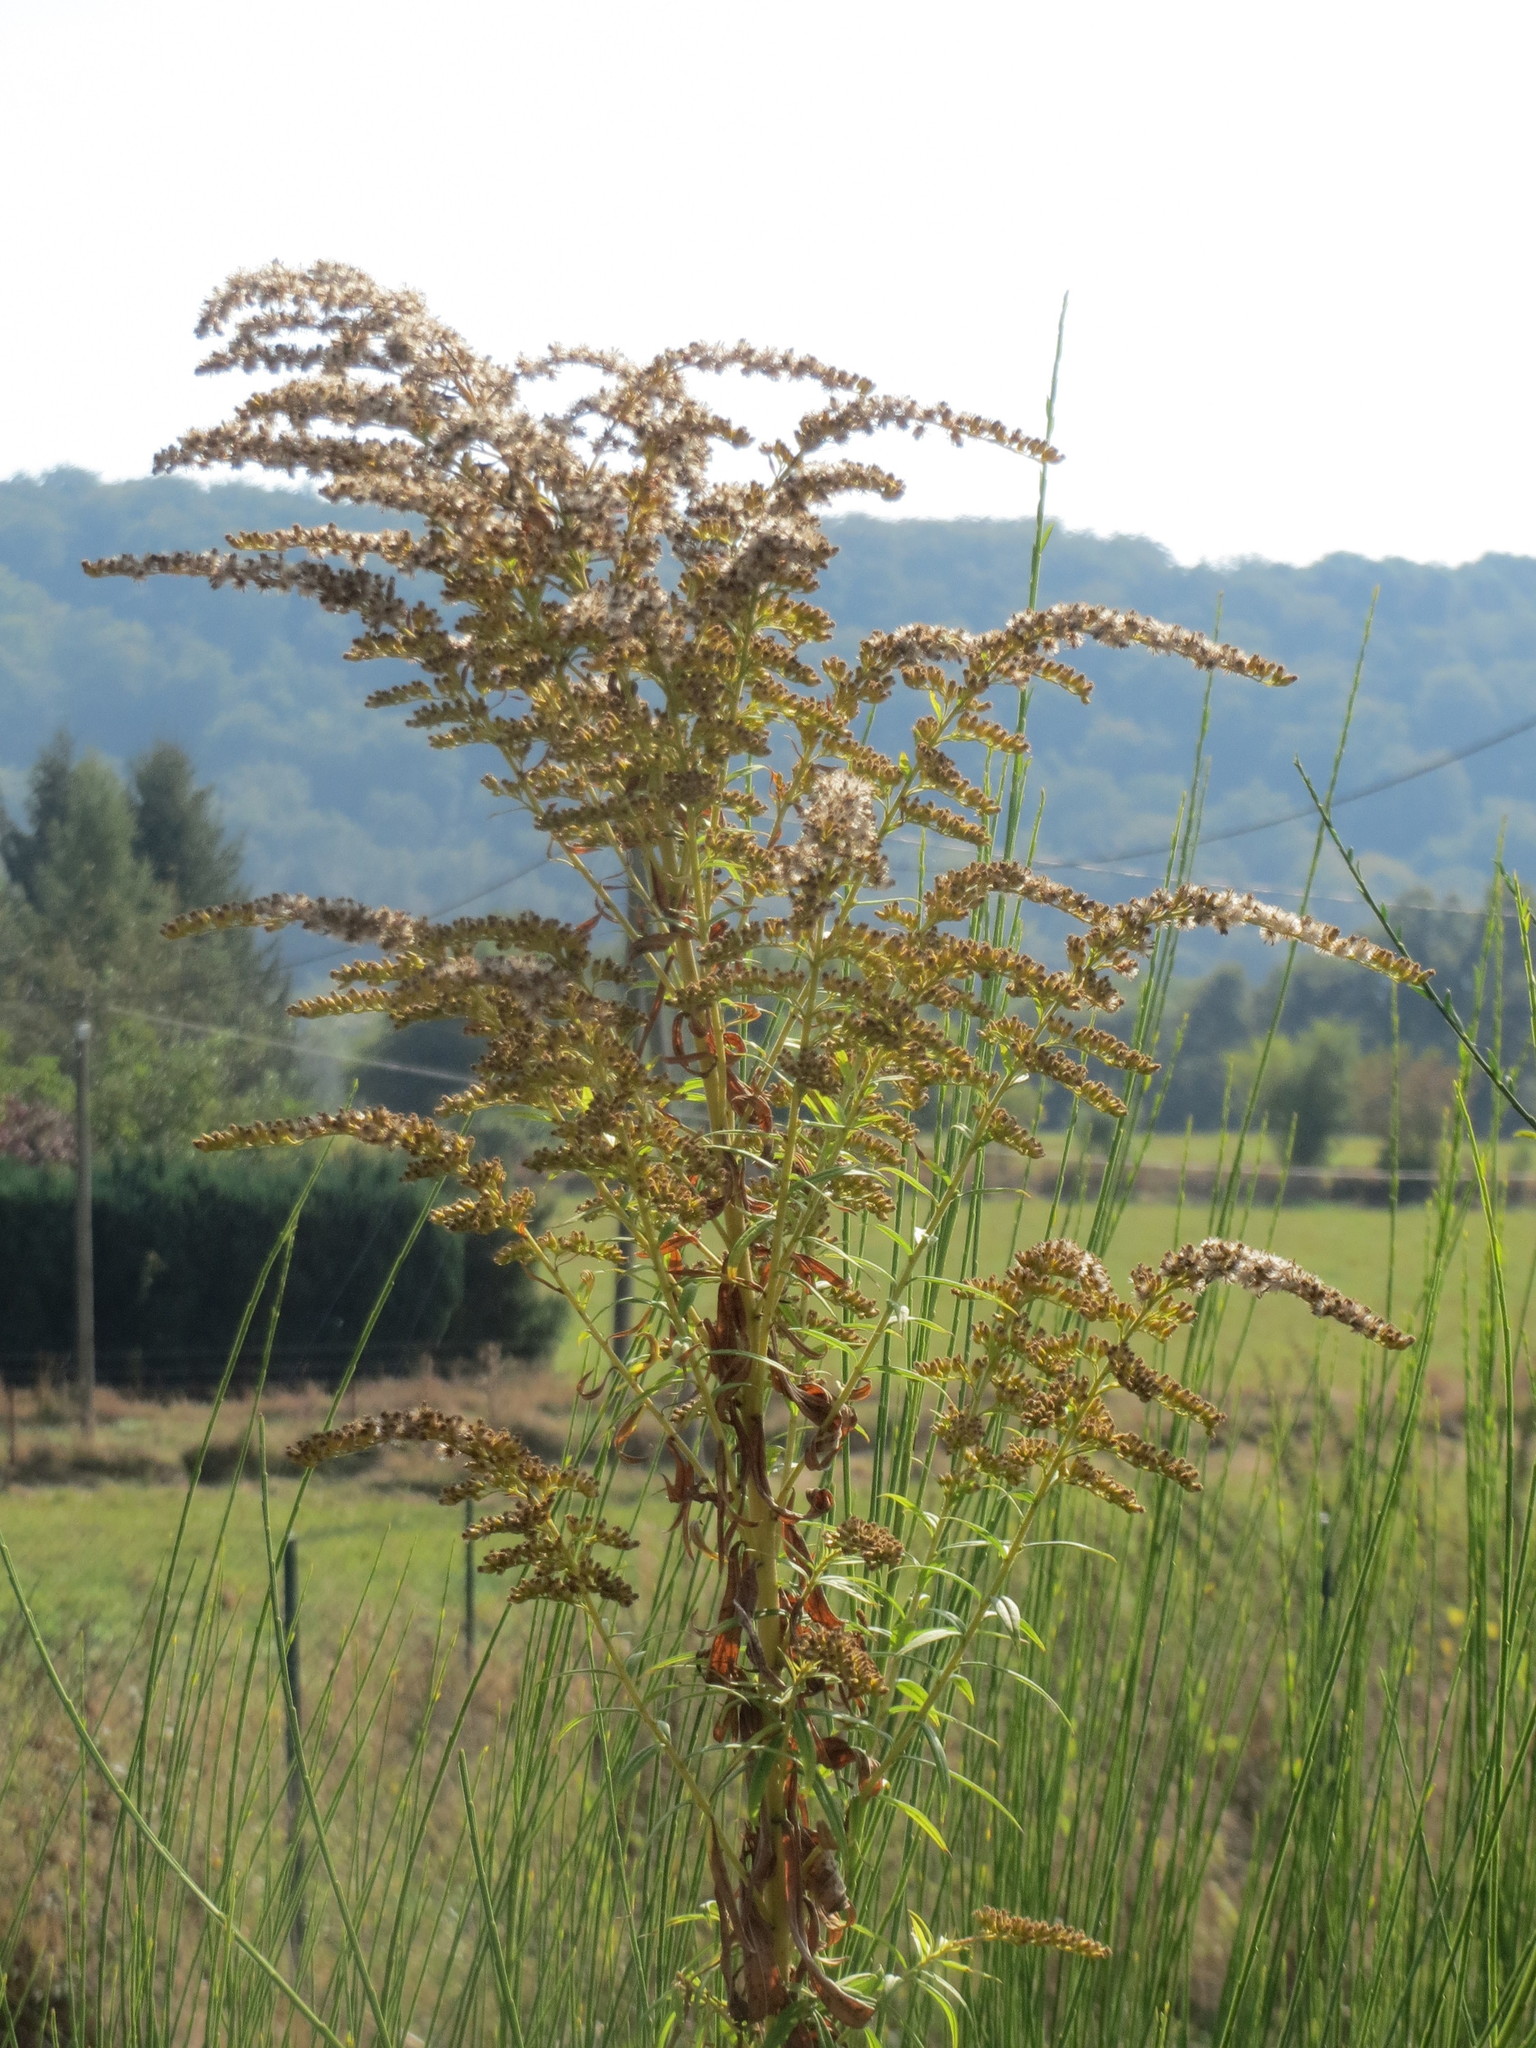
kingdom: Plantae
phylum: Tracheophyta
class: Magnoliopsida
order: Asterales
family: Asteraceae
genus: Solidago
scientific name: Solidago canadensis
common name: Canada goldenrod
